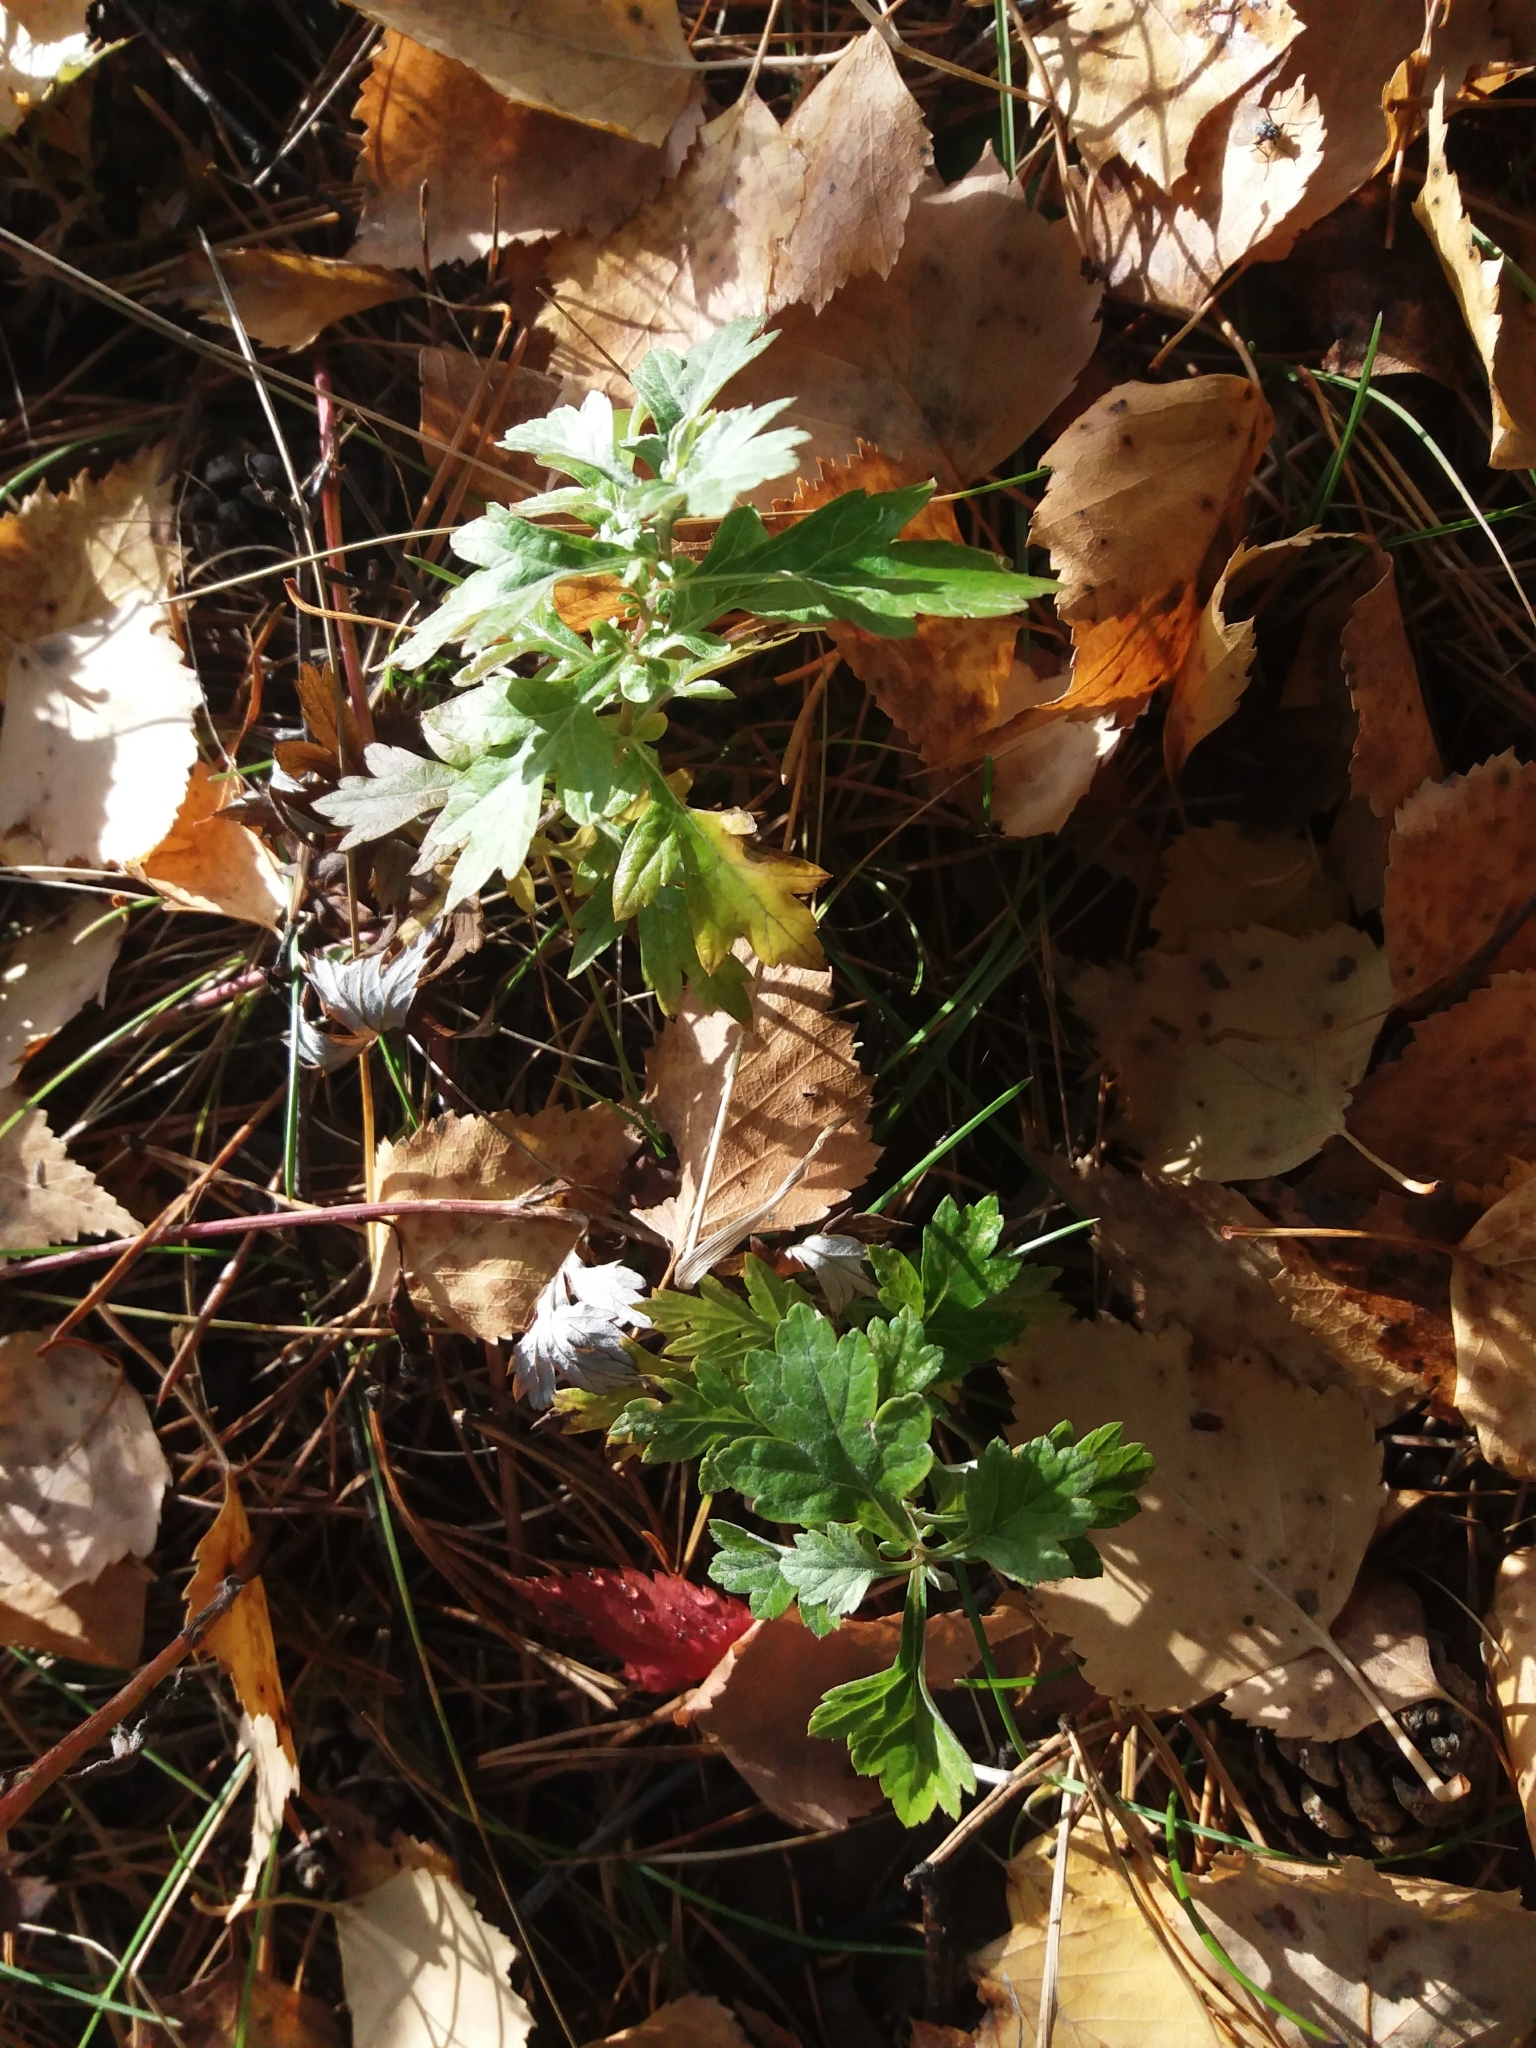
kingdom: Plantae
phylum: Tracheophyta
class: Magnoliopsida
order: Asterales
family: Asteraceae
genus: Artemisia
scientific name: Artemisia vulgaris
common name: Mugwort
